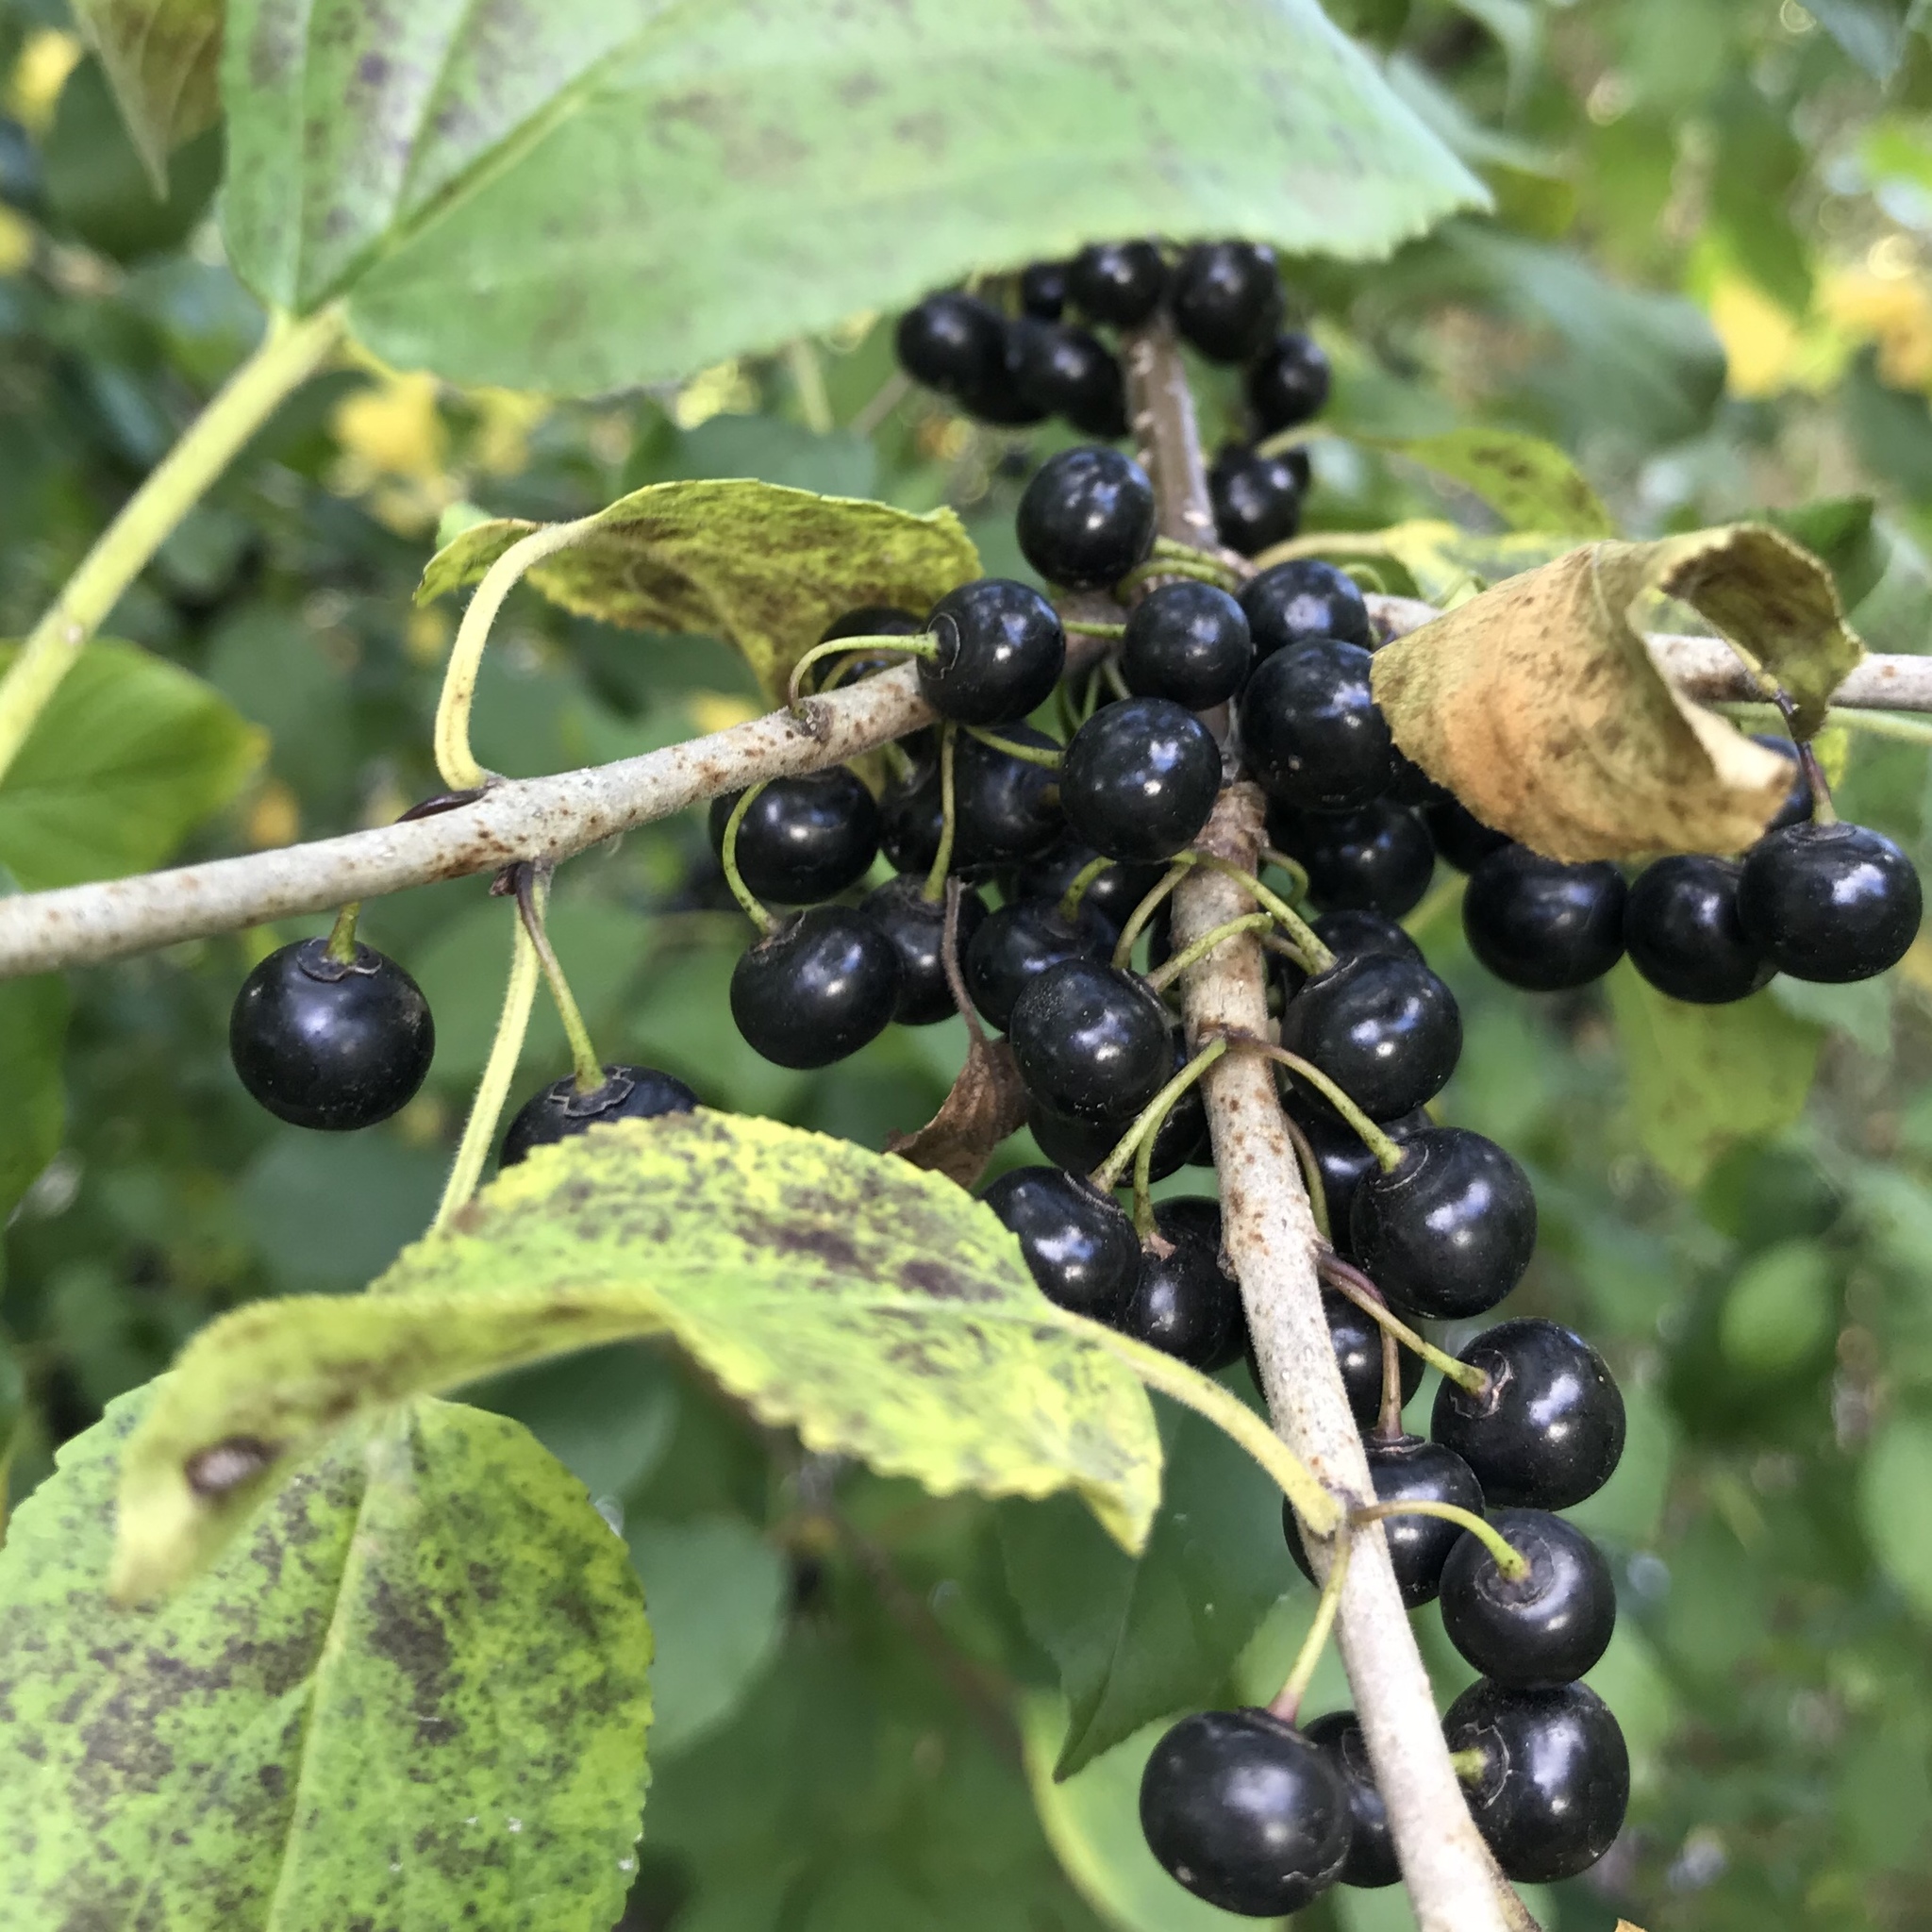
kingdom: Plantae
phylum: Tracheophyta
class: Magnoliopsida
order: Rosales
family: Rhamnaceae
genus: Rhamnus
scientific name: Rhamnus cathartica
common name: Common buckthorn
